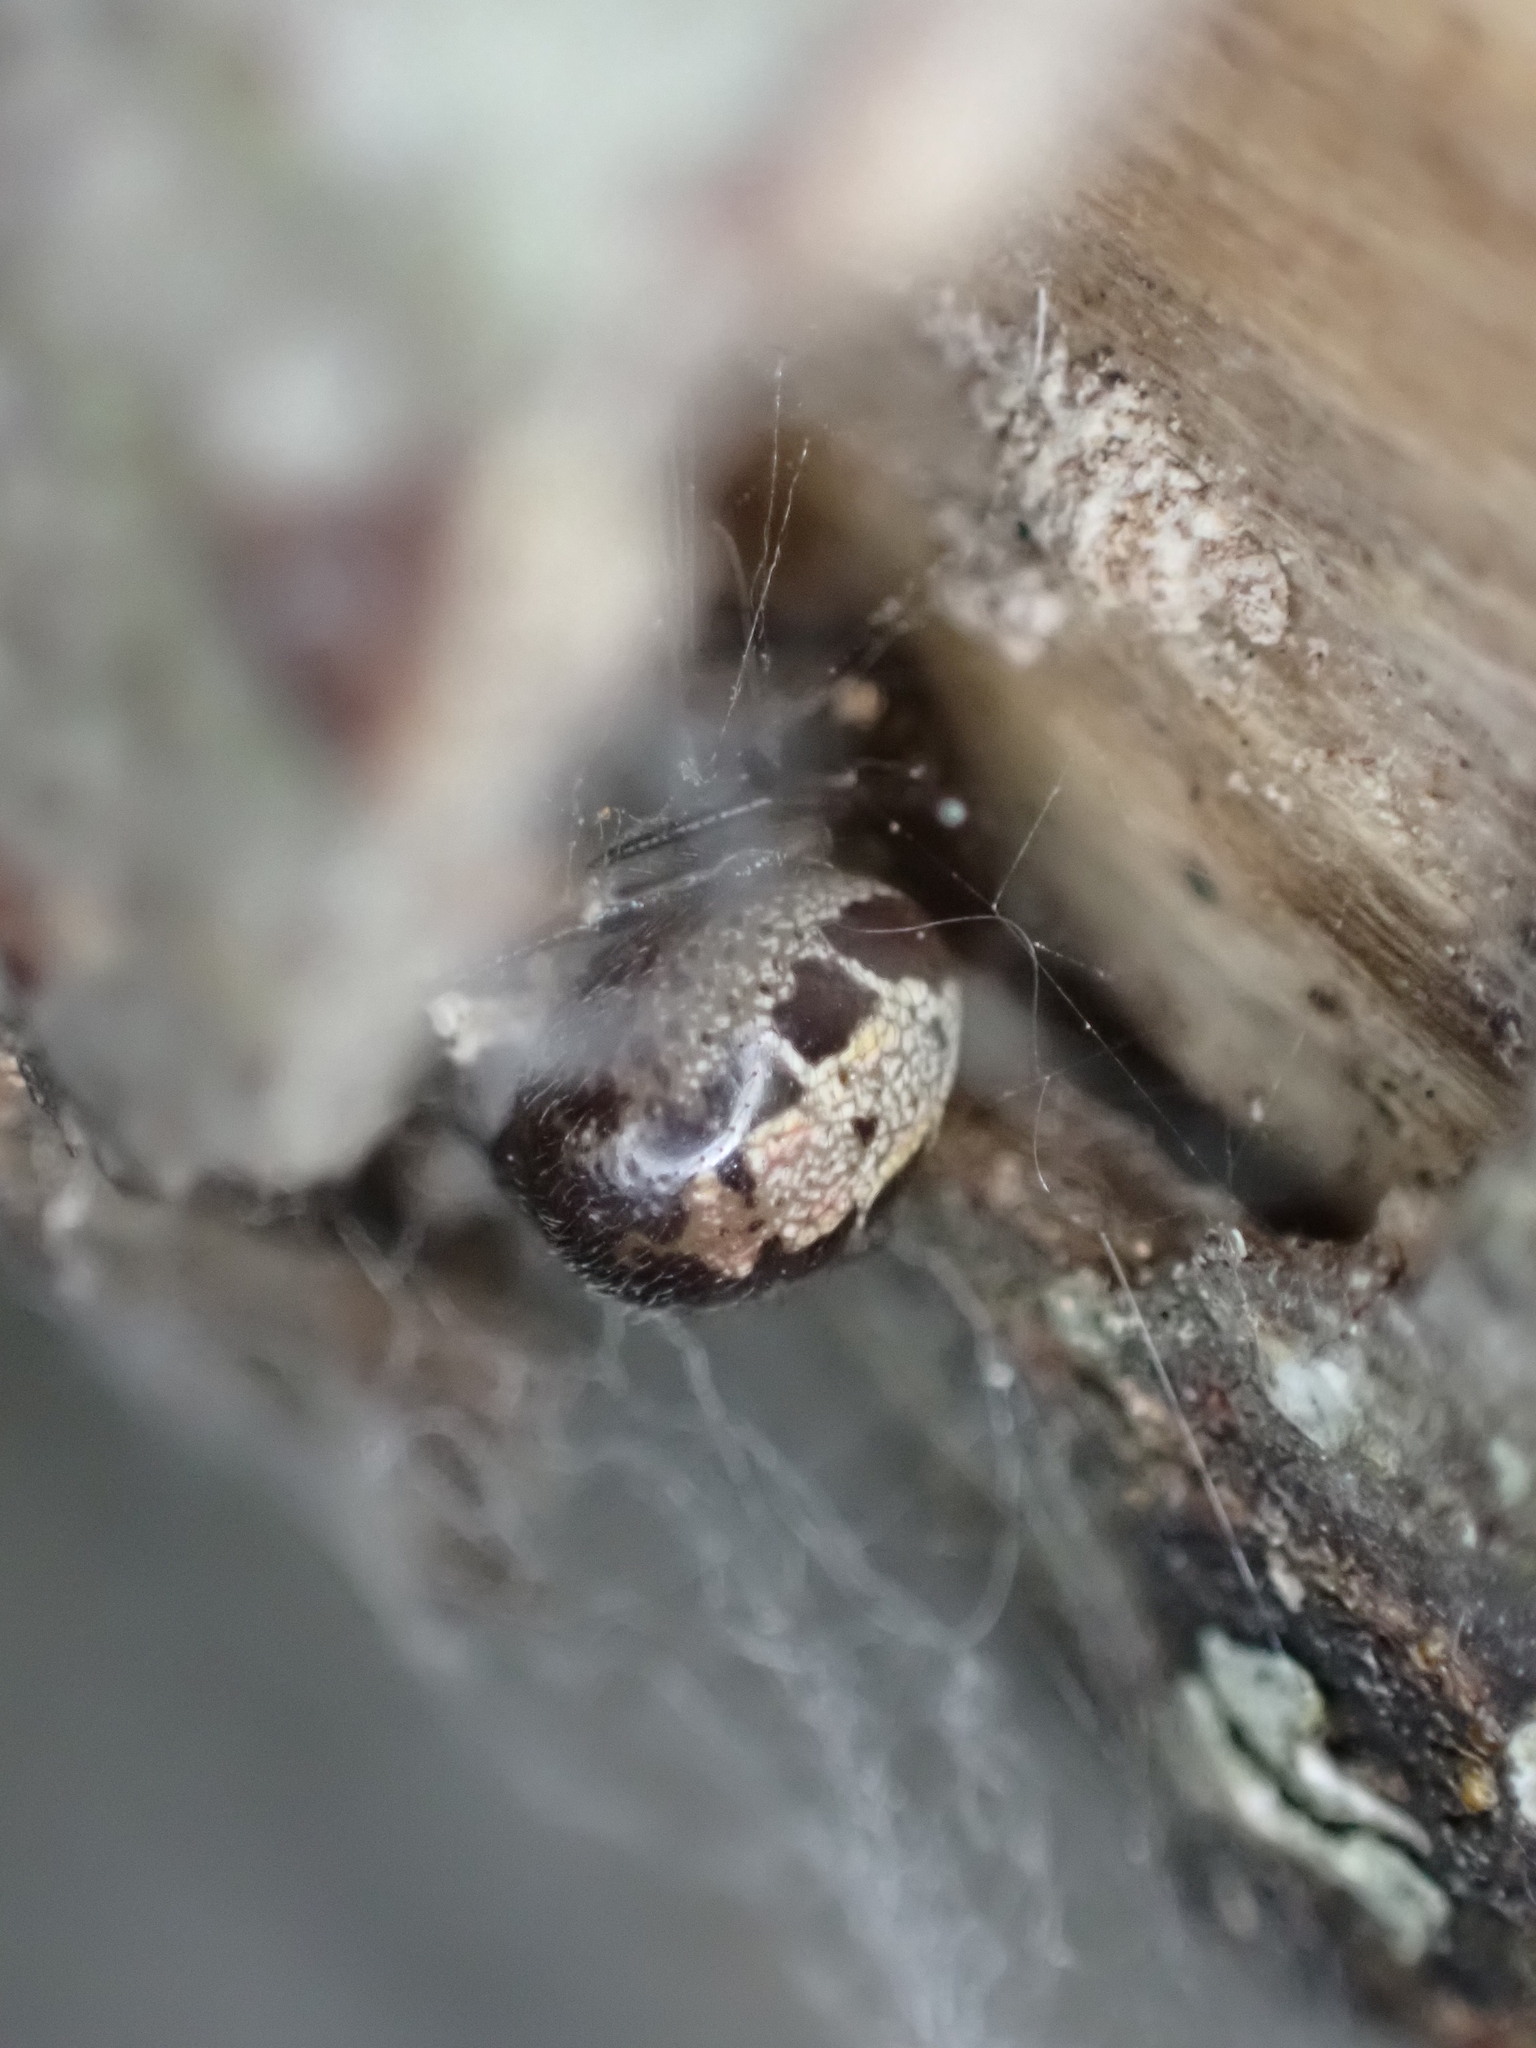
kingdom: Animalia
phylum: Arthropoda
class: Arachnida
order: Araneae
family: Theridiidae
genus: Steatoda
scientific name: Steatoda nobilis
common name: Cobweb weaver
